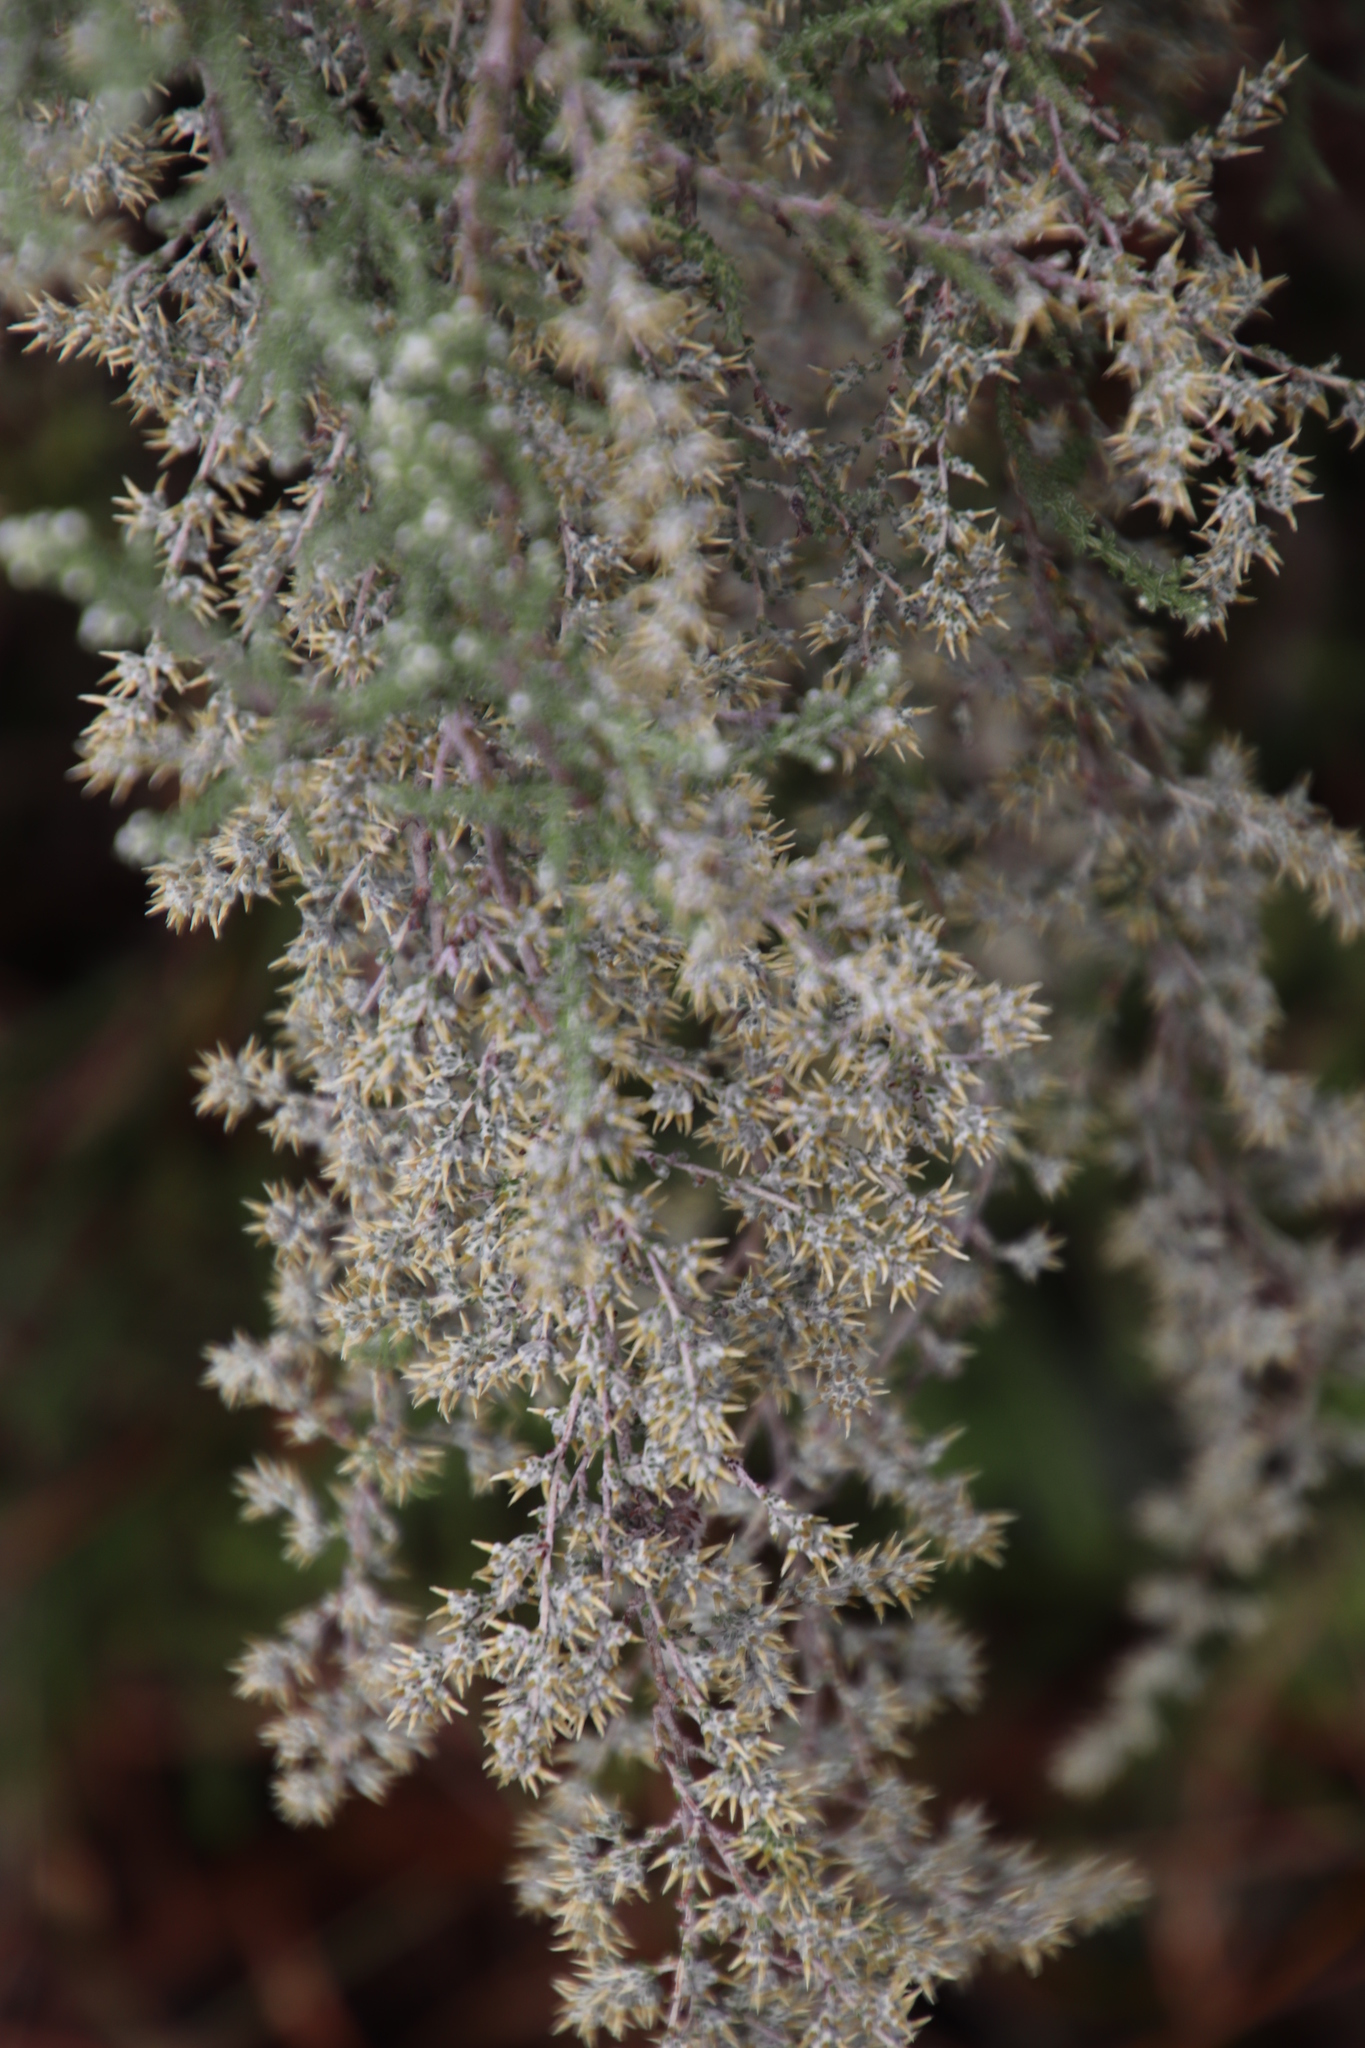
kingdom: Plantae
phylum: Tracheophyta
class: Magnoliopsida
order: Asterales
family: Asteraceae
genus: Seriphium
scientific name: Seriphium plumosum
